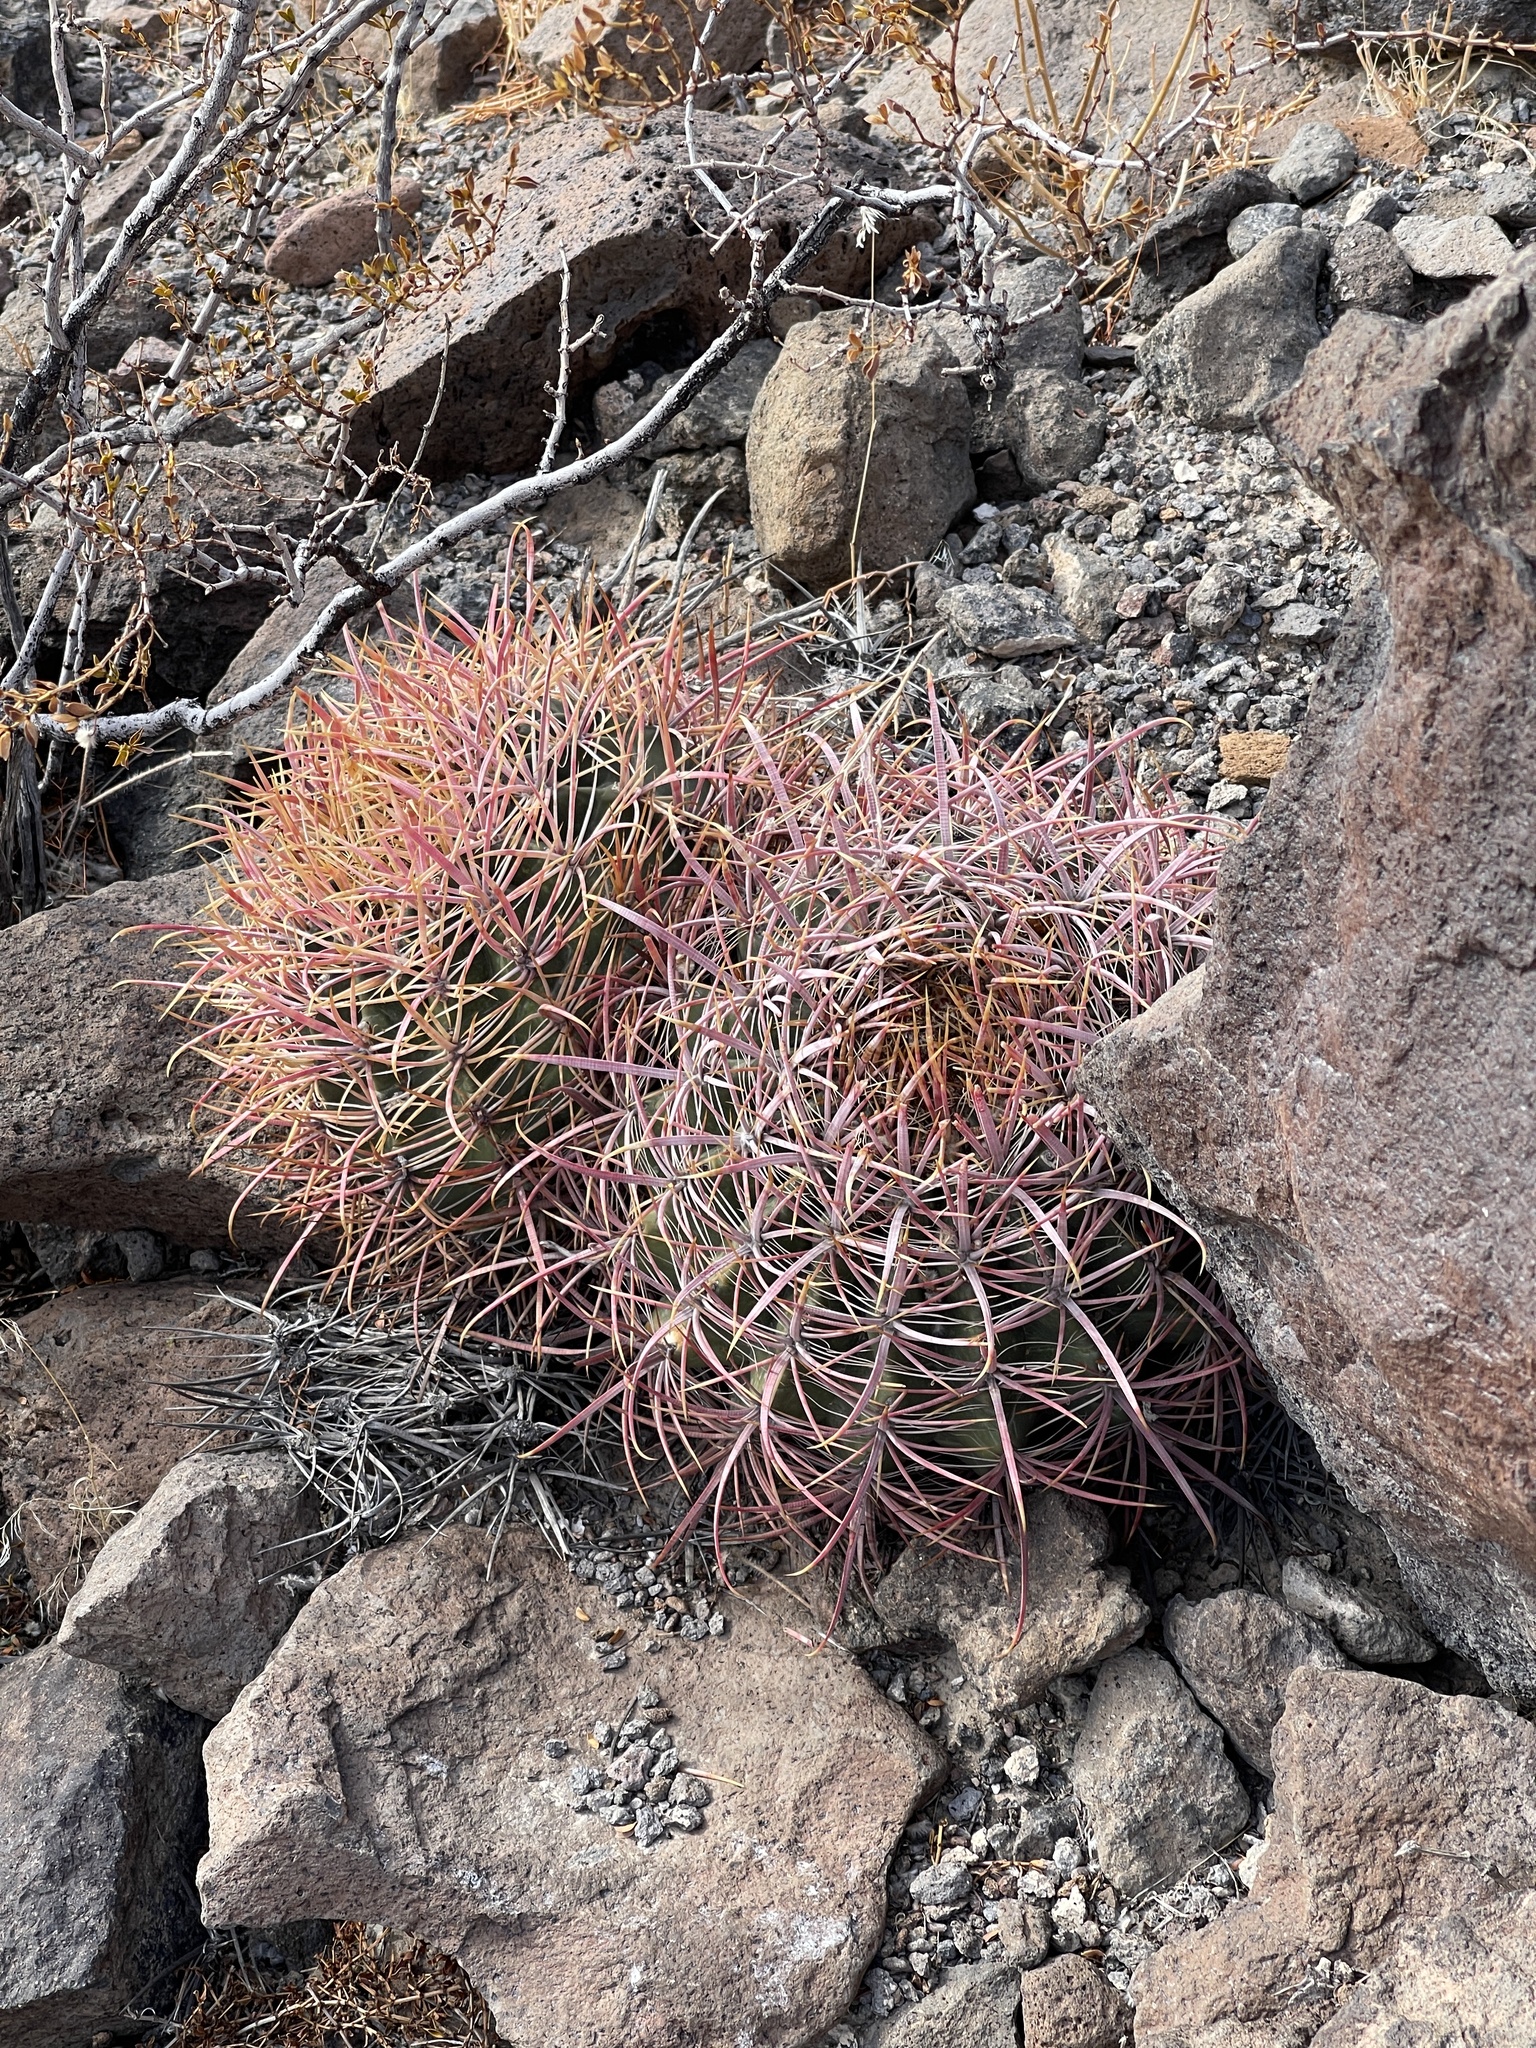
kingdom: Plantae
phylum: Tracheophyta
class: Magnoliopsida
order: Caryophyllales
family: Cactaceae
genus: Ferocactus
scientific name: Ferocactus cylindraceus
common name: California barrel cactus
